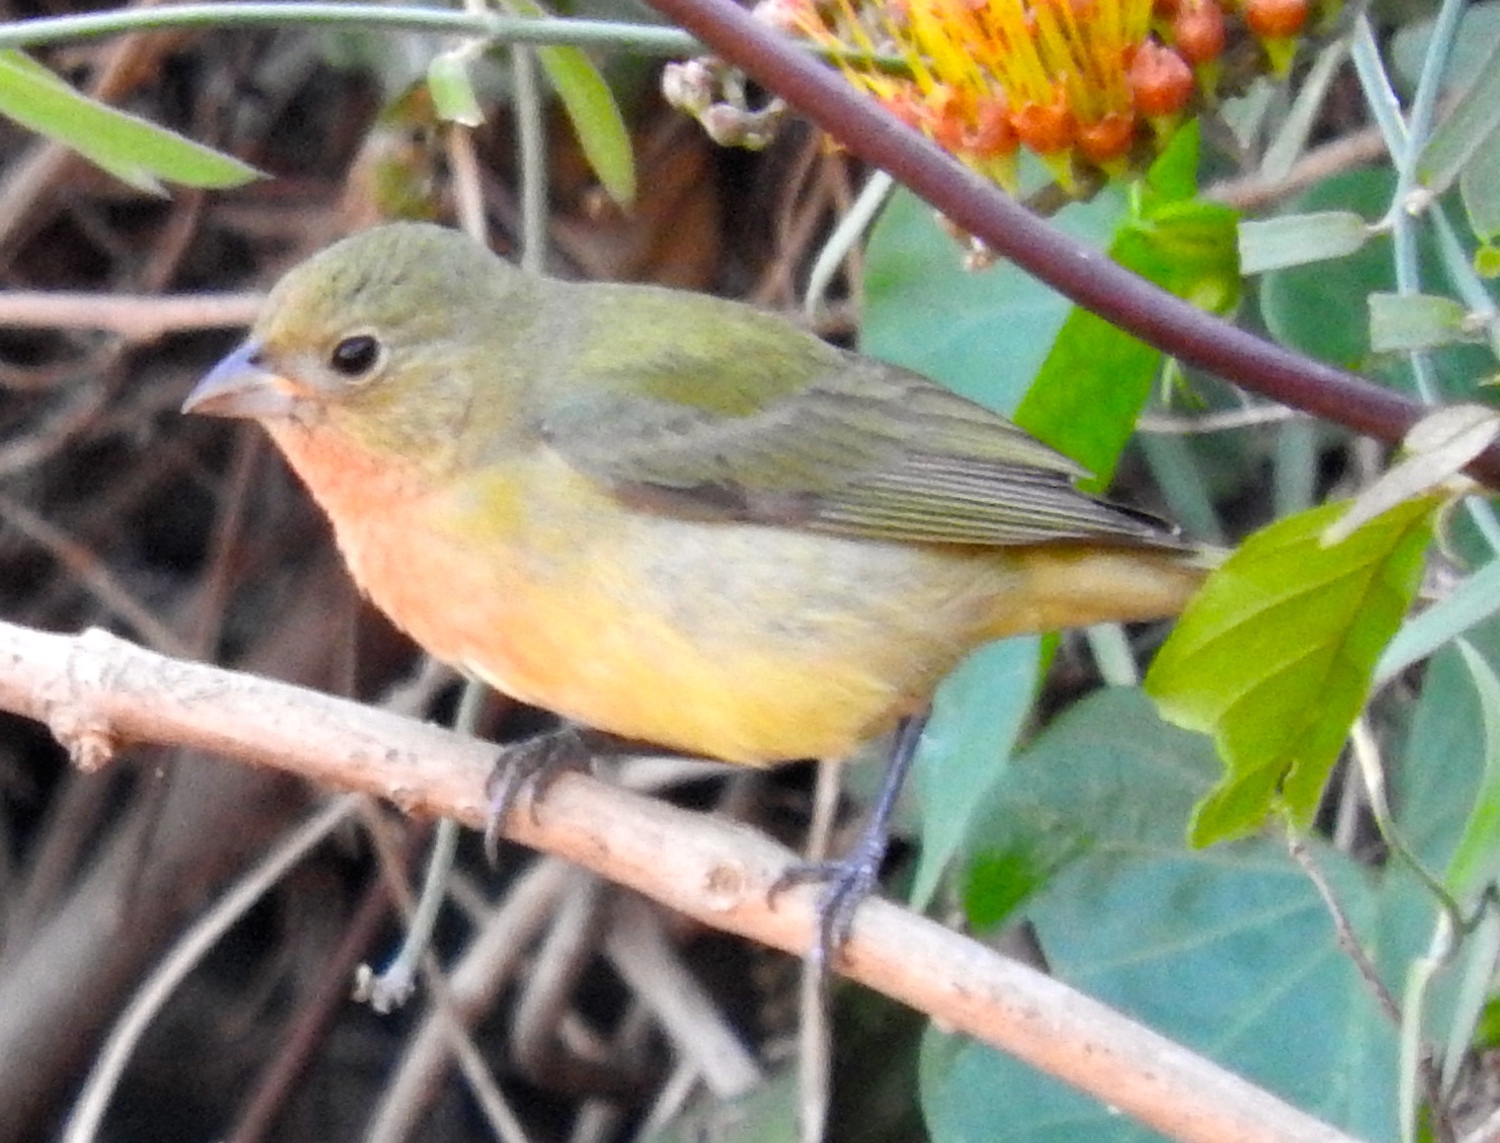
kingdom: Animalia
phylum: Chordata
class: Aves
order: Passeriformes
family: Cardinalidae
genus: Passerina
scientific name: Passerina ciris
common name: Painted bunting
